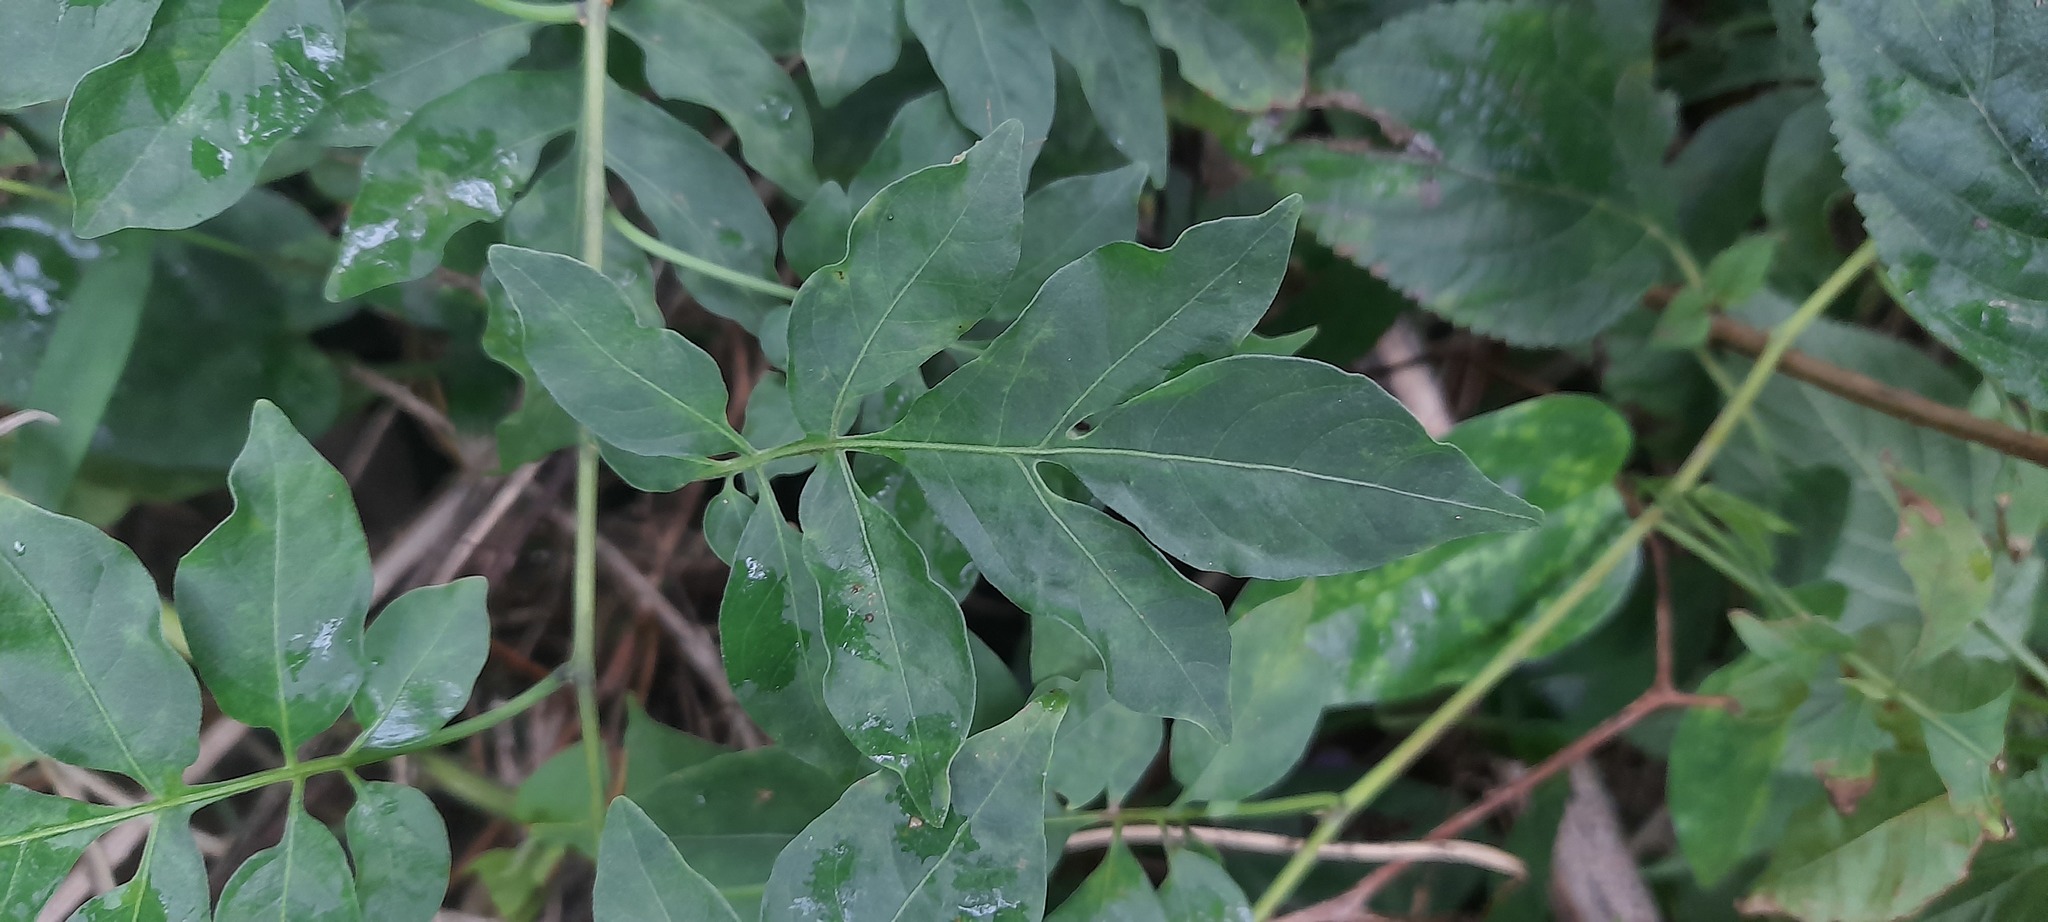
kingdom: Plantae
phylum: Tracheophyta
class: Magnoliopsida
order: Solanales
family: Solanaceae
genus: Solanum
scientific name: Solanum seaforthianum
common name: Brazilian nightshade
